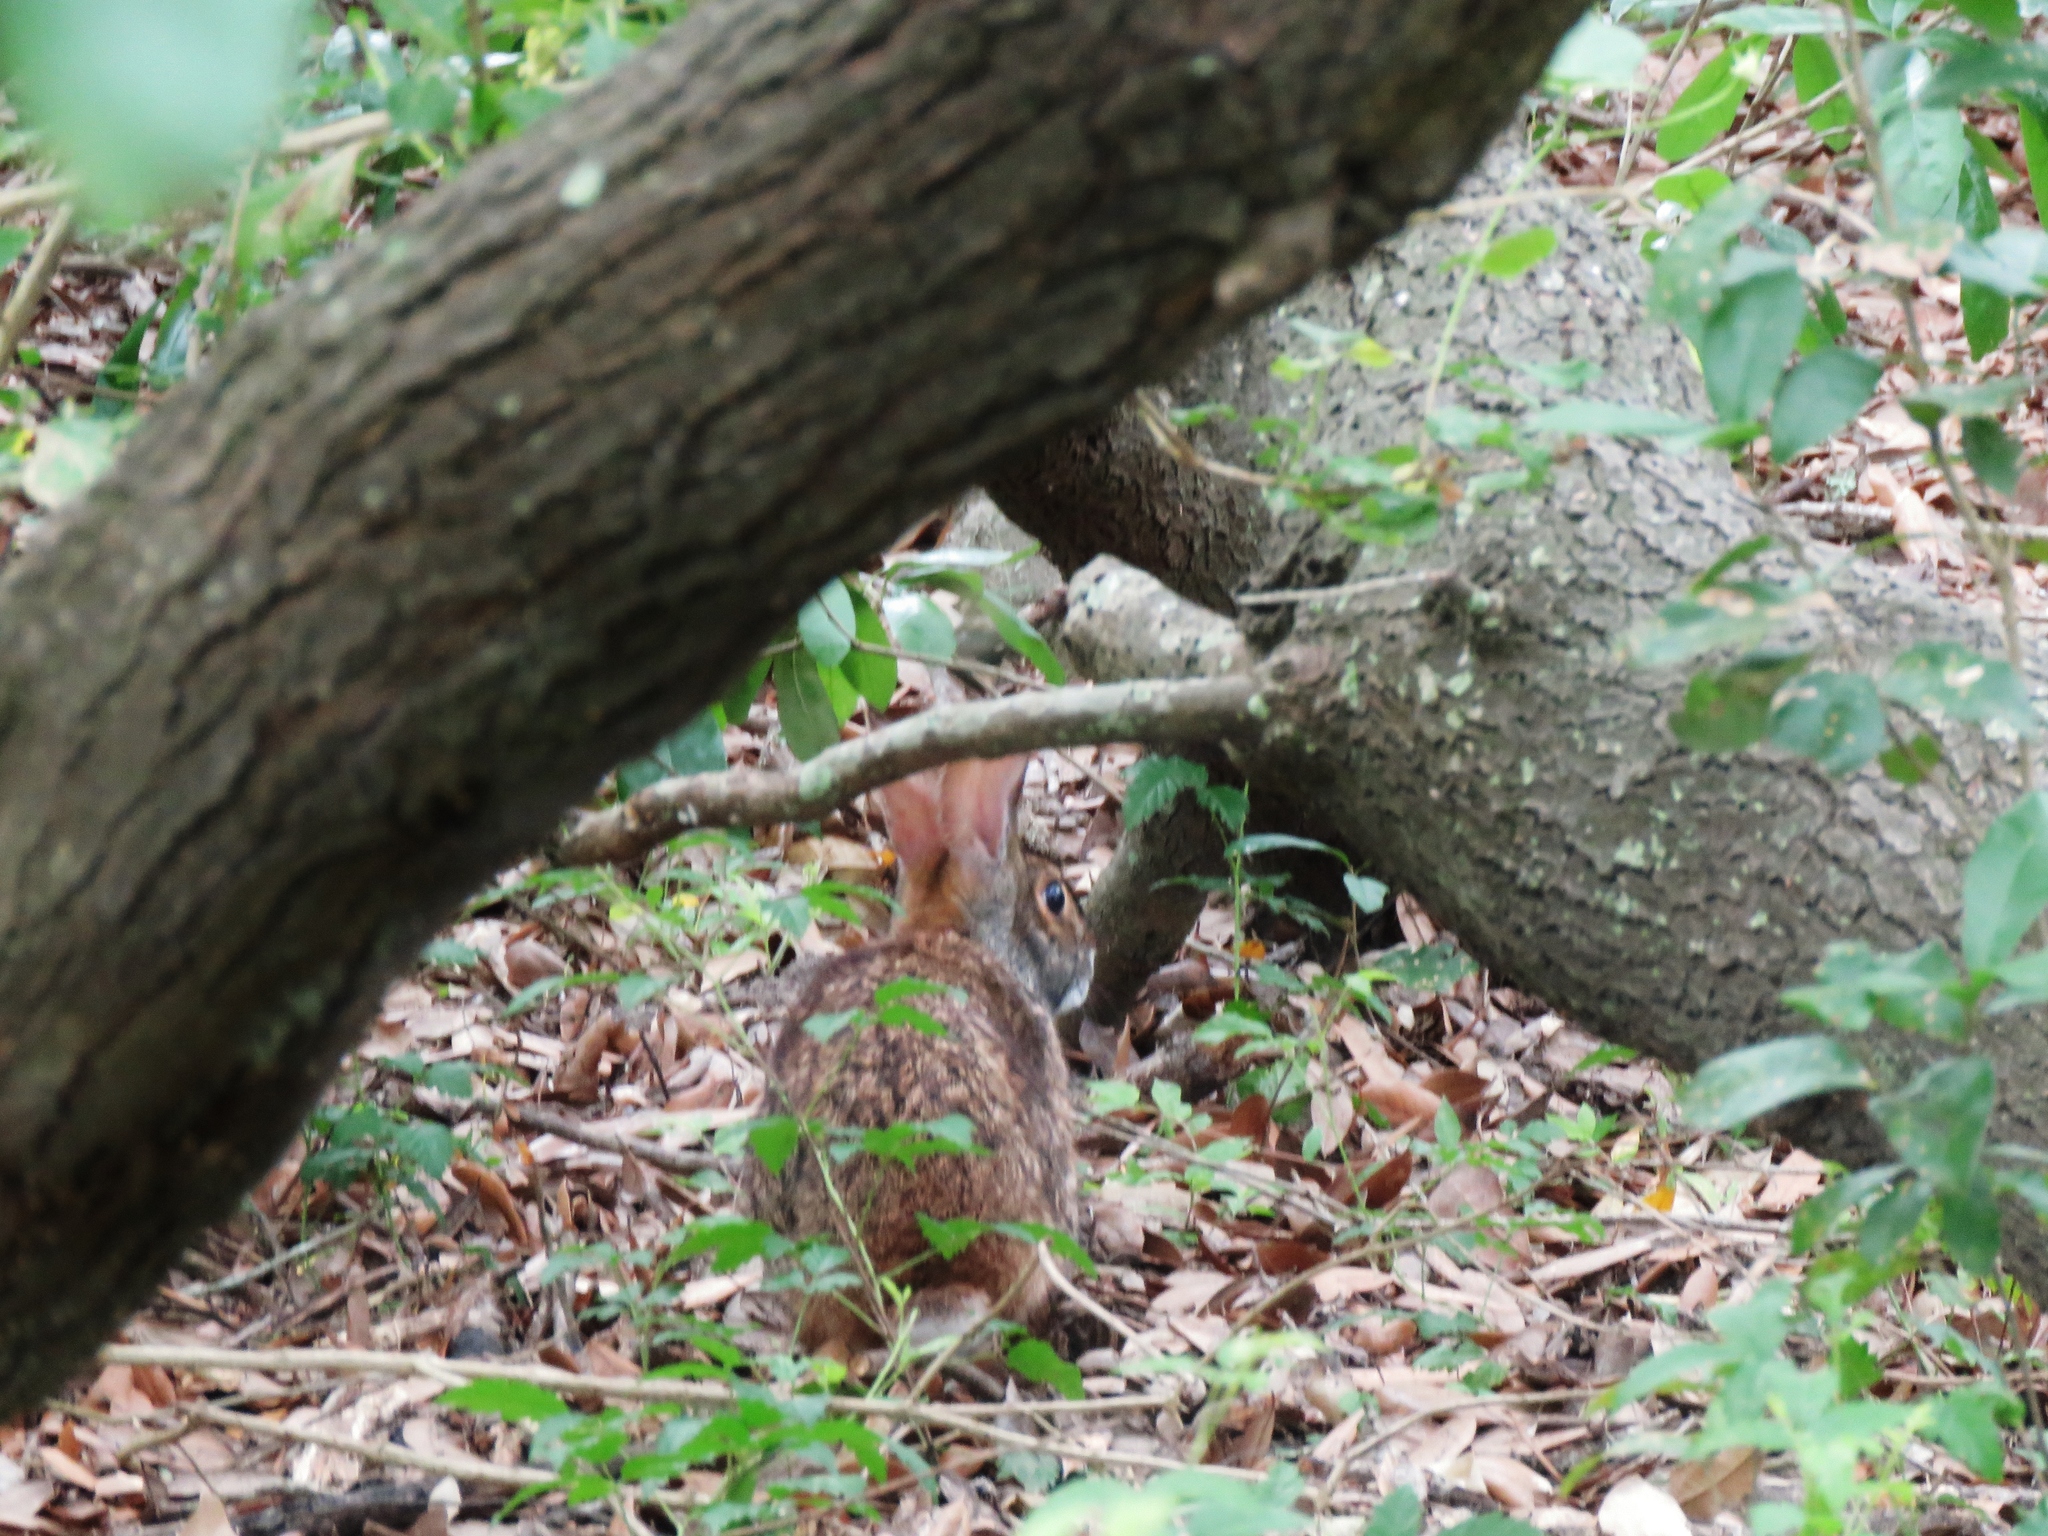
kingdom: Animalia
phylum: Chordata
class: Mammalia
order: Lagomorpha
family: Leporidae
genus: Sylvilagus
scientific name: Sylvilagus floridanus
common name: Eastern cottontail
